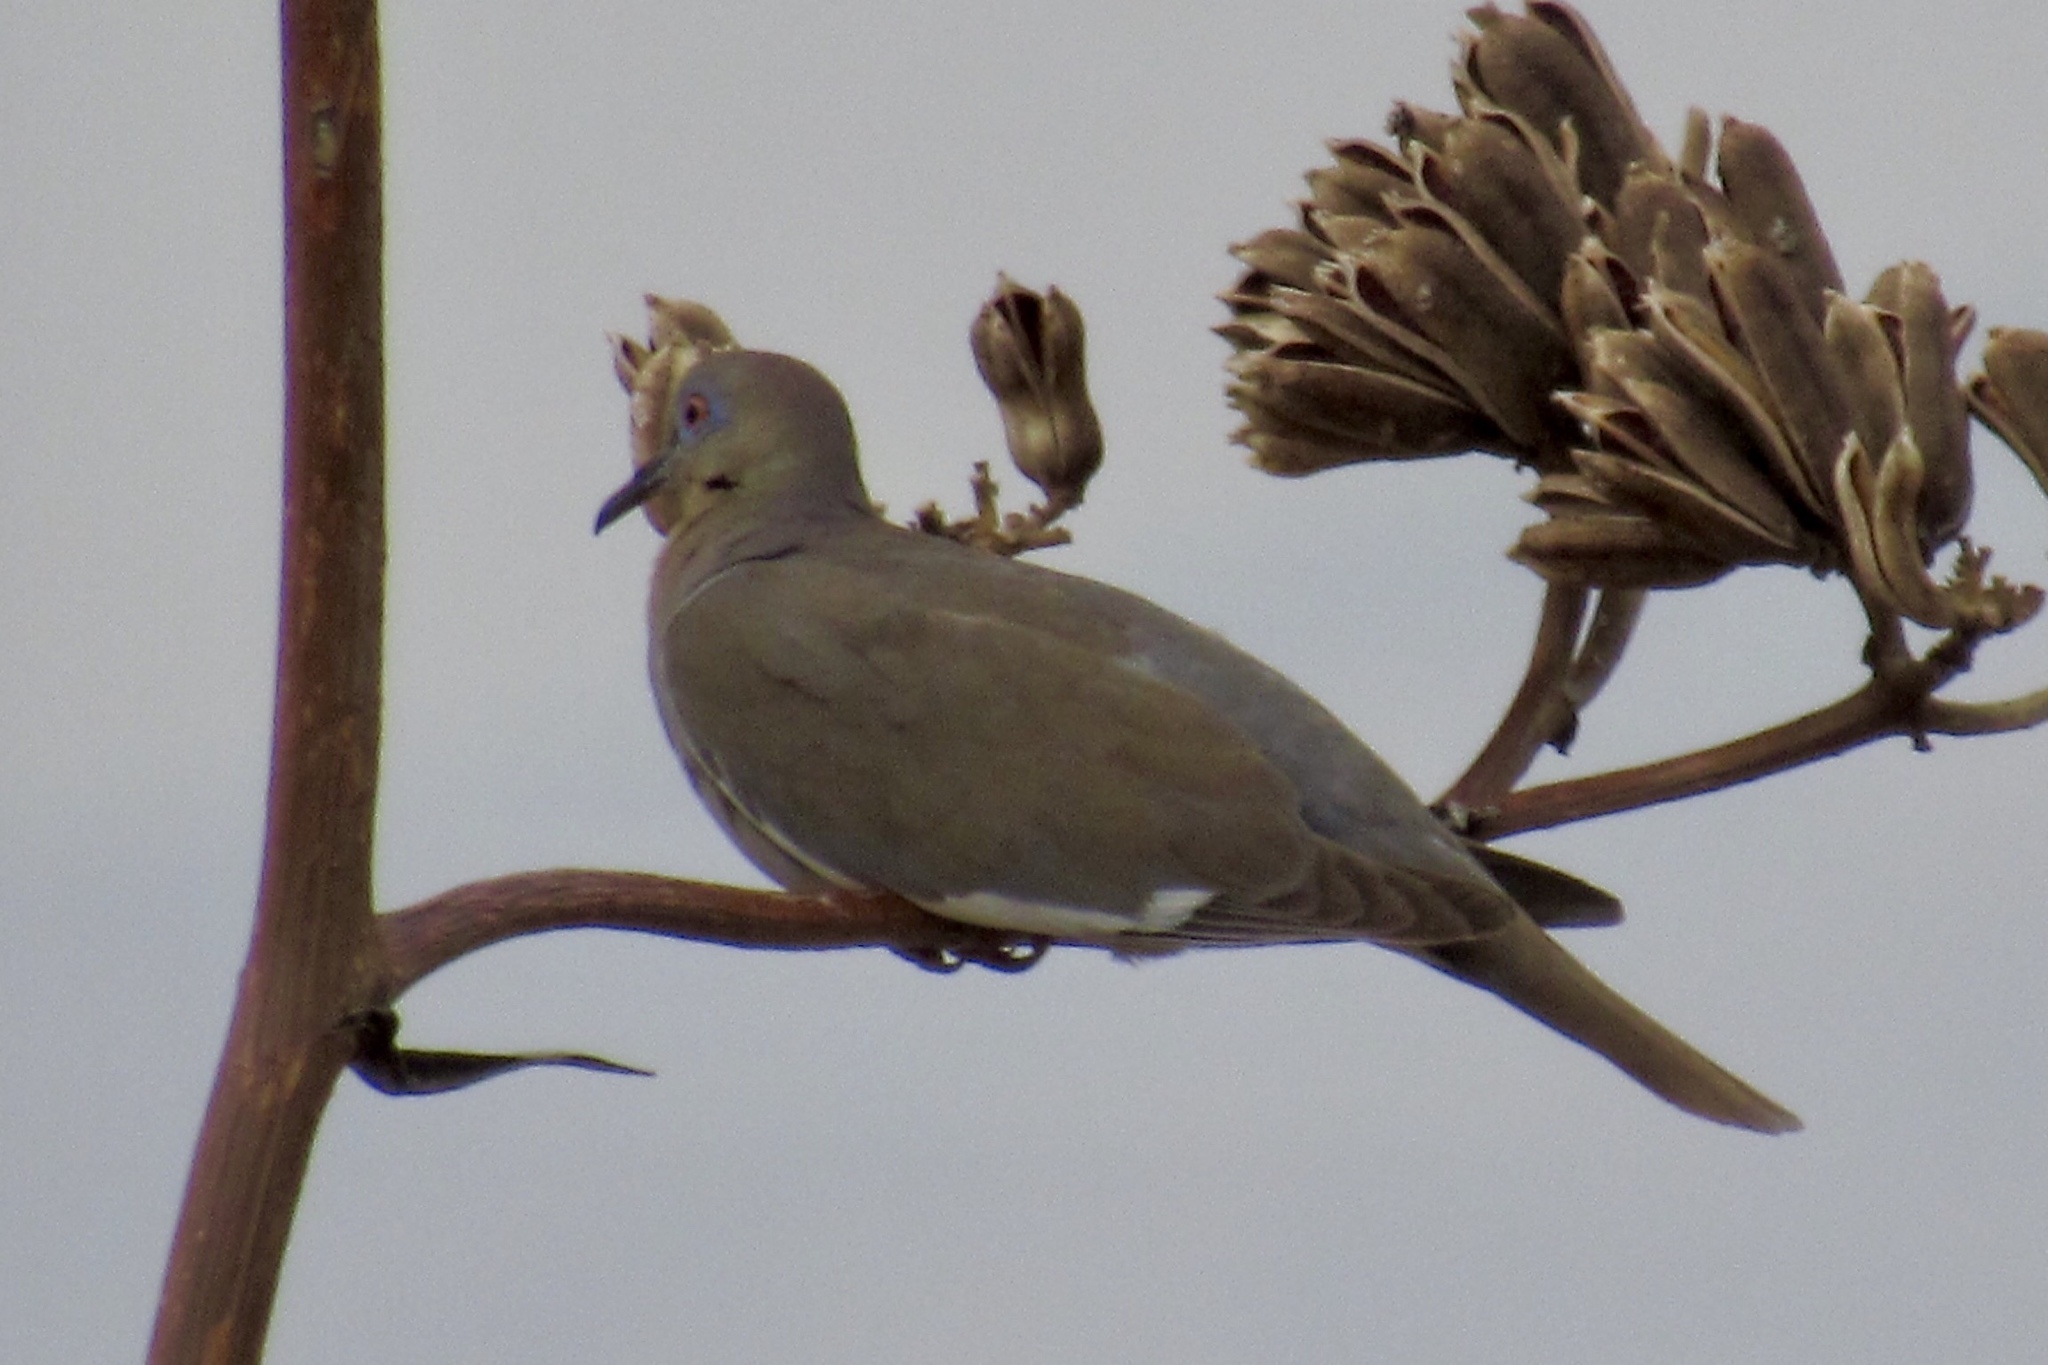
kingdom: Animalia
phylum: Chordata
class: Aves
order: Columbiformes
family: Columbidae
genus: Zenaida
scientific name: Zenaida asiatica
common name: White-winged dove
